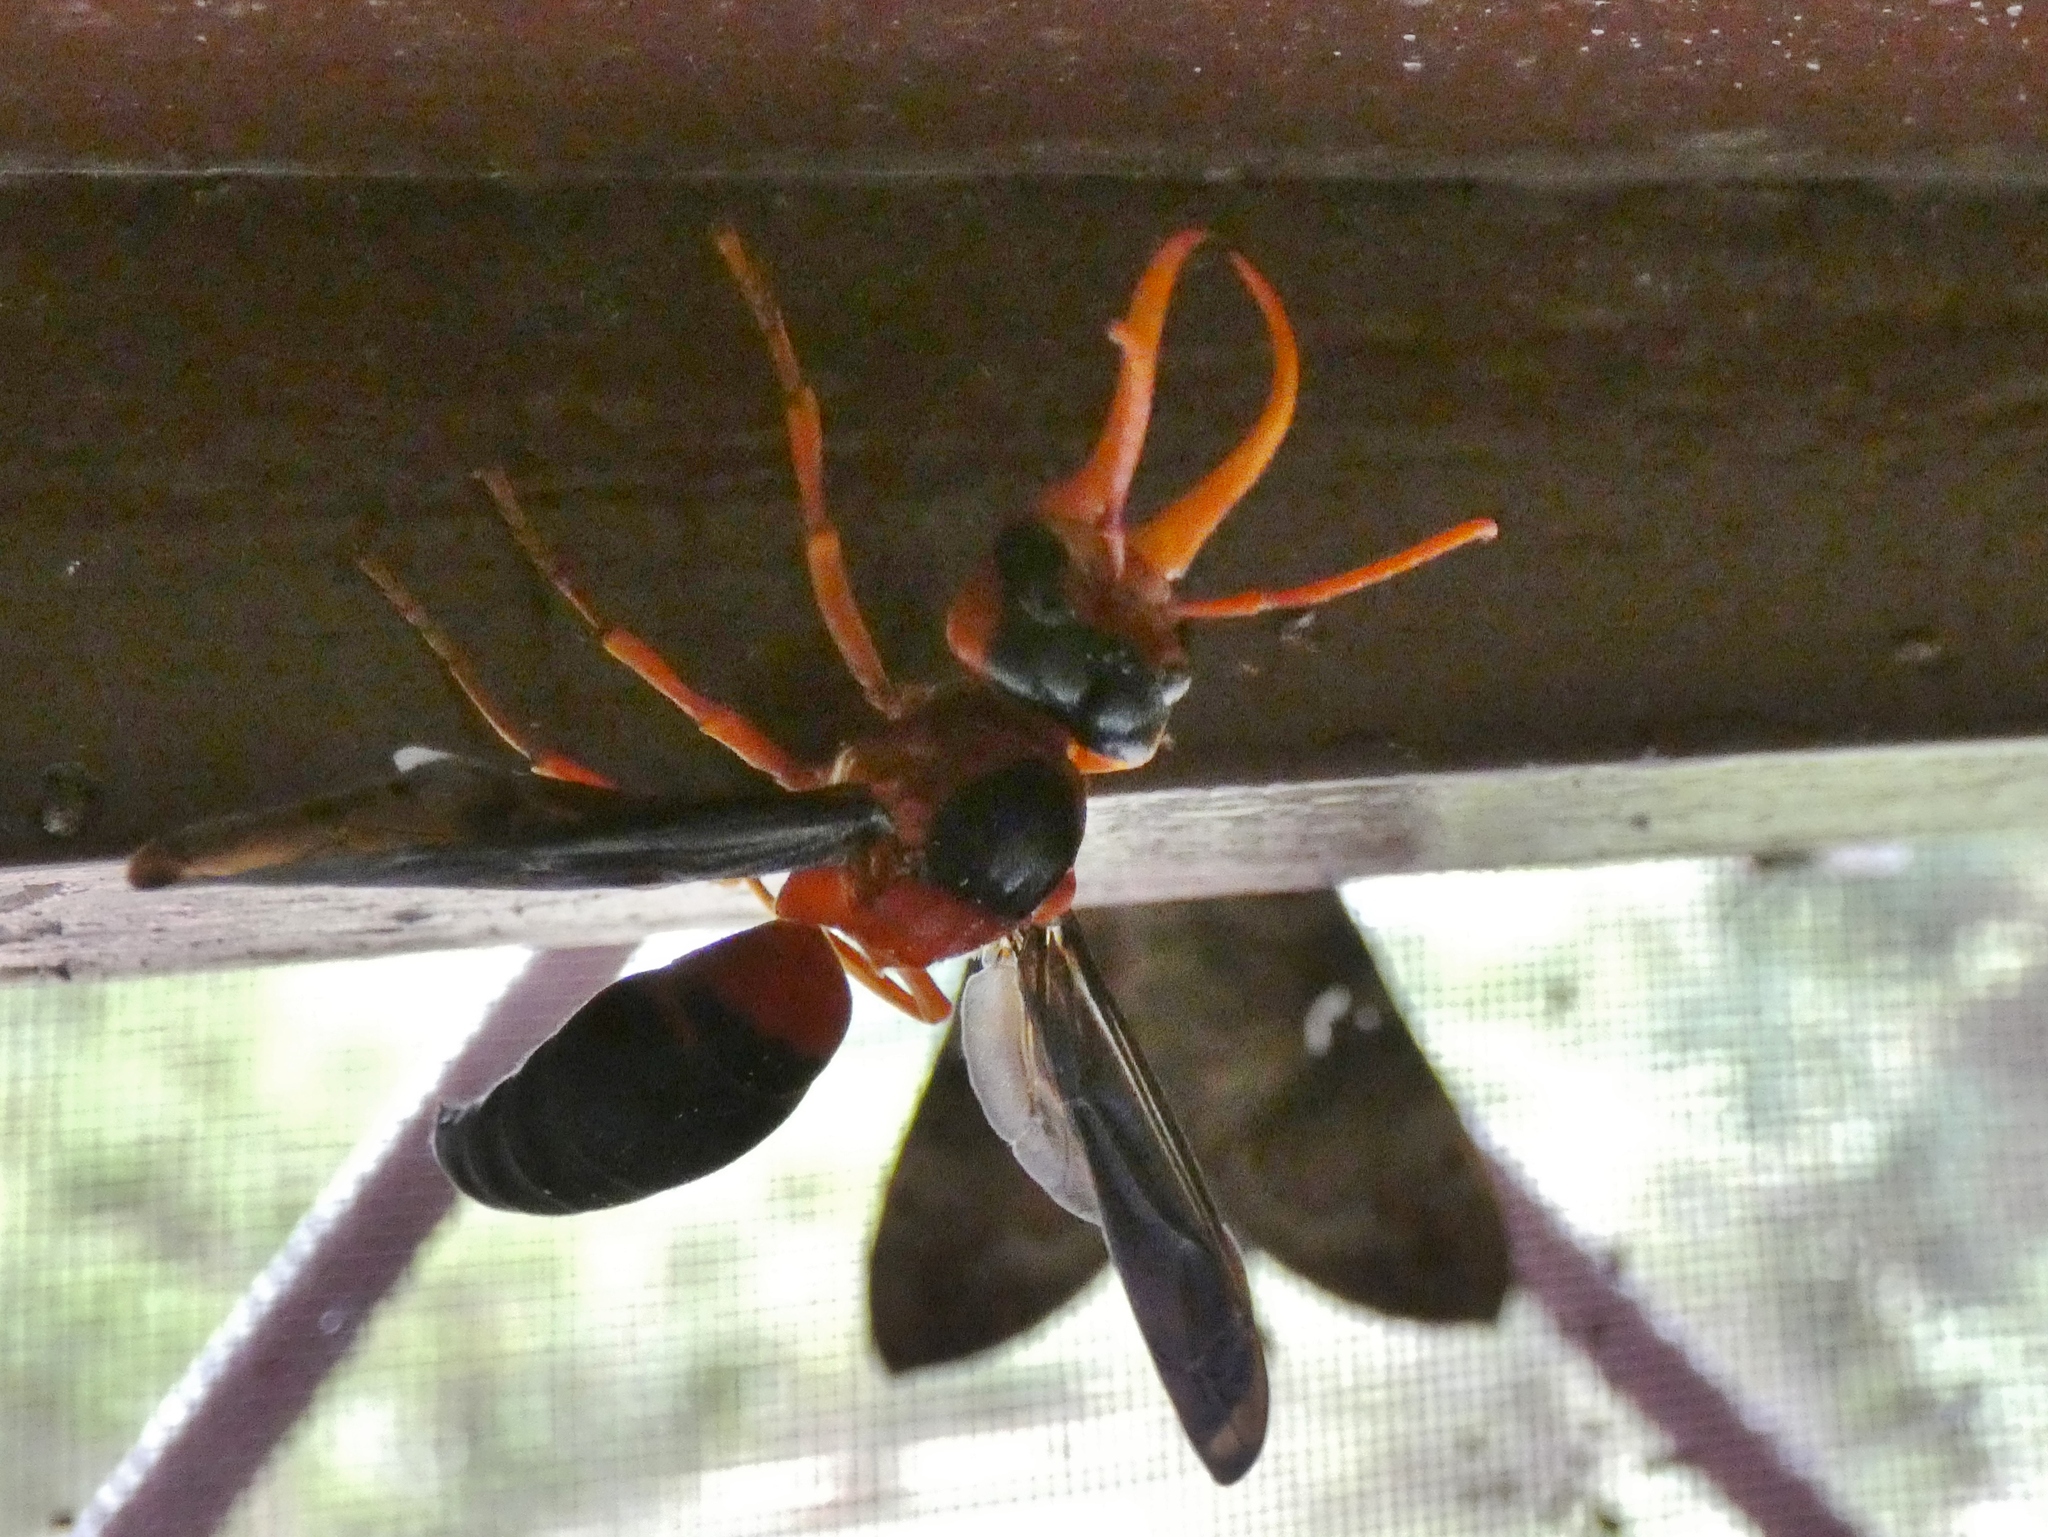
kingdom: Animalia
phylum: Arthropoda
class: Insecta
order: Hymenoptera
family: Vespidae
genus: Synagris
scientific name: Synagris cornuta
